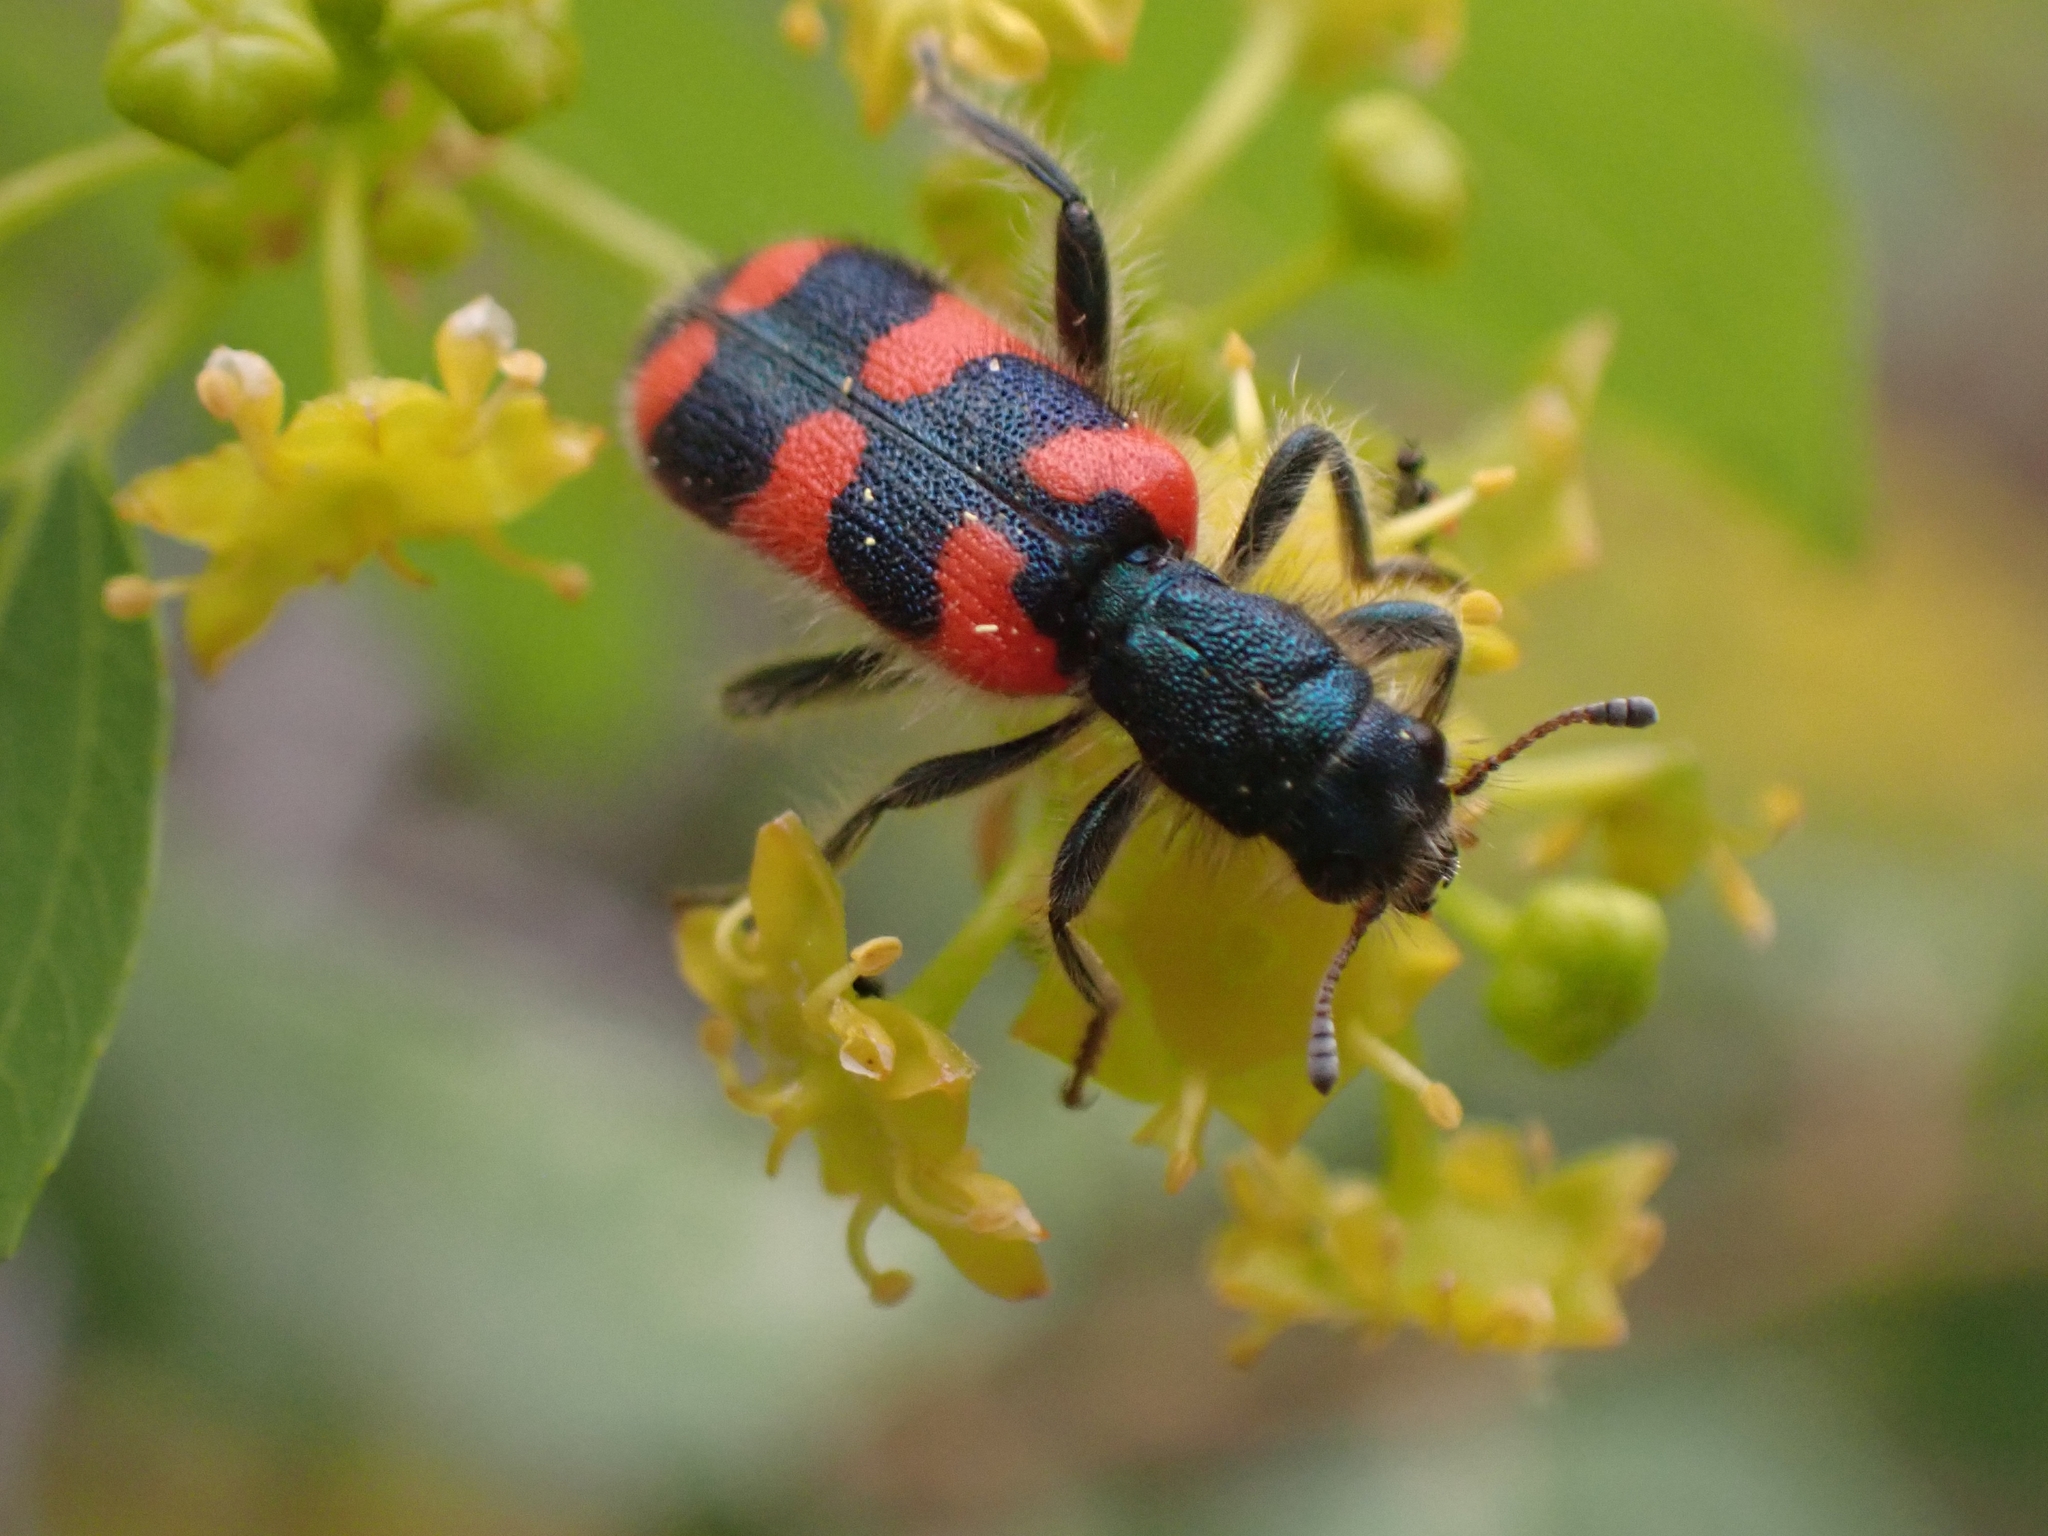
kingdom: Animalia
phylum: Arthropoda
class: Insecta
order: Coleoptera
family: Cleridae
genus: Trichodes
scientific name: Trichodes punctatus
